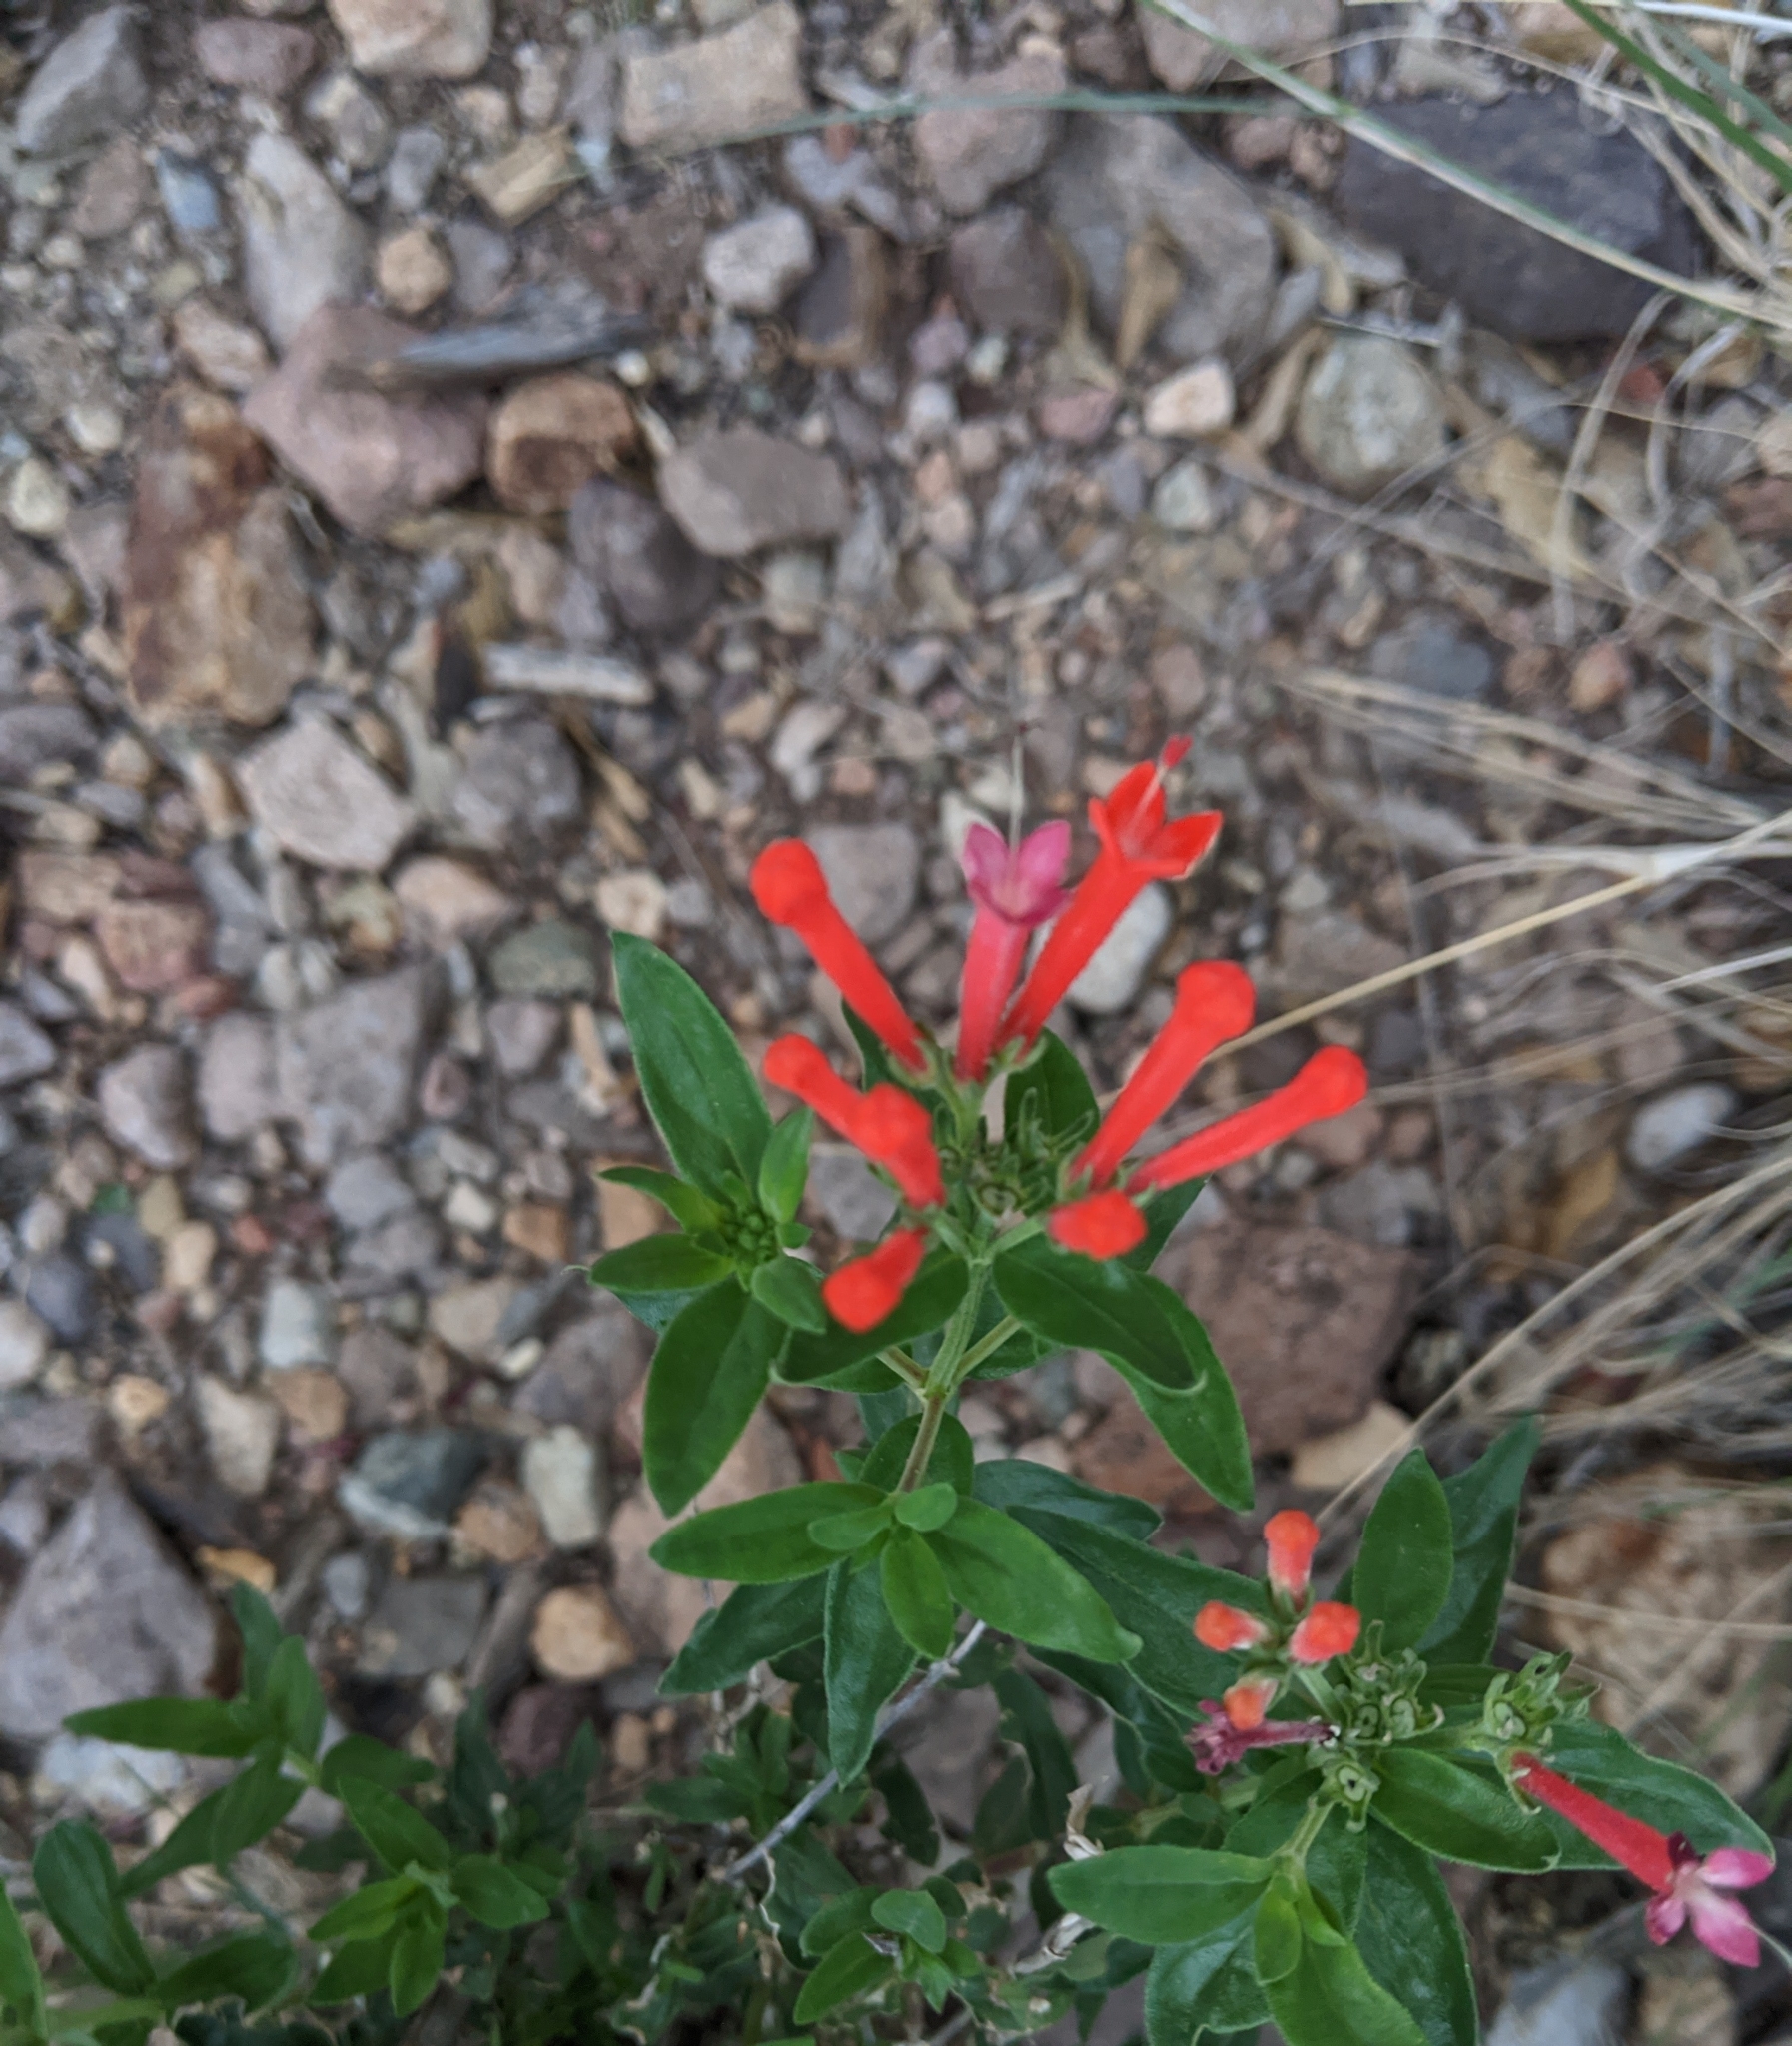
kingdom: Plantae
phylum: Tracheophyta
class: Magnoliopsida
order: Gentianales
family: Rubiaceae
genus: Bouvardia
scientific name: Bouvardia ternifolia
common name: Scarlet bouvardia
